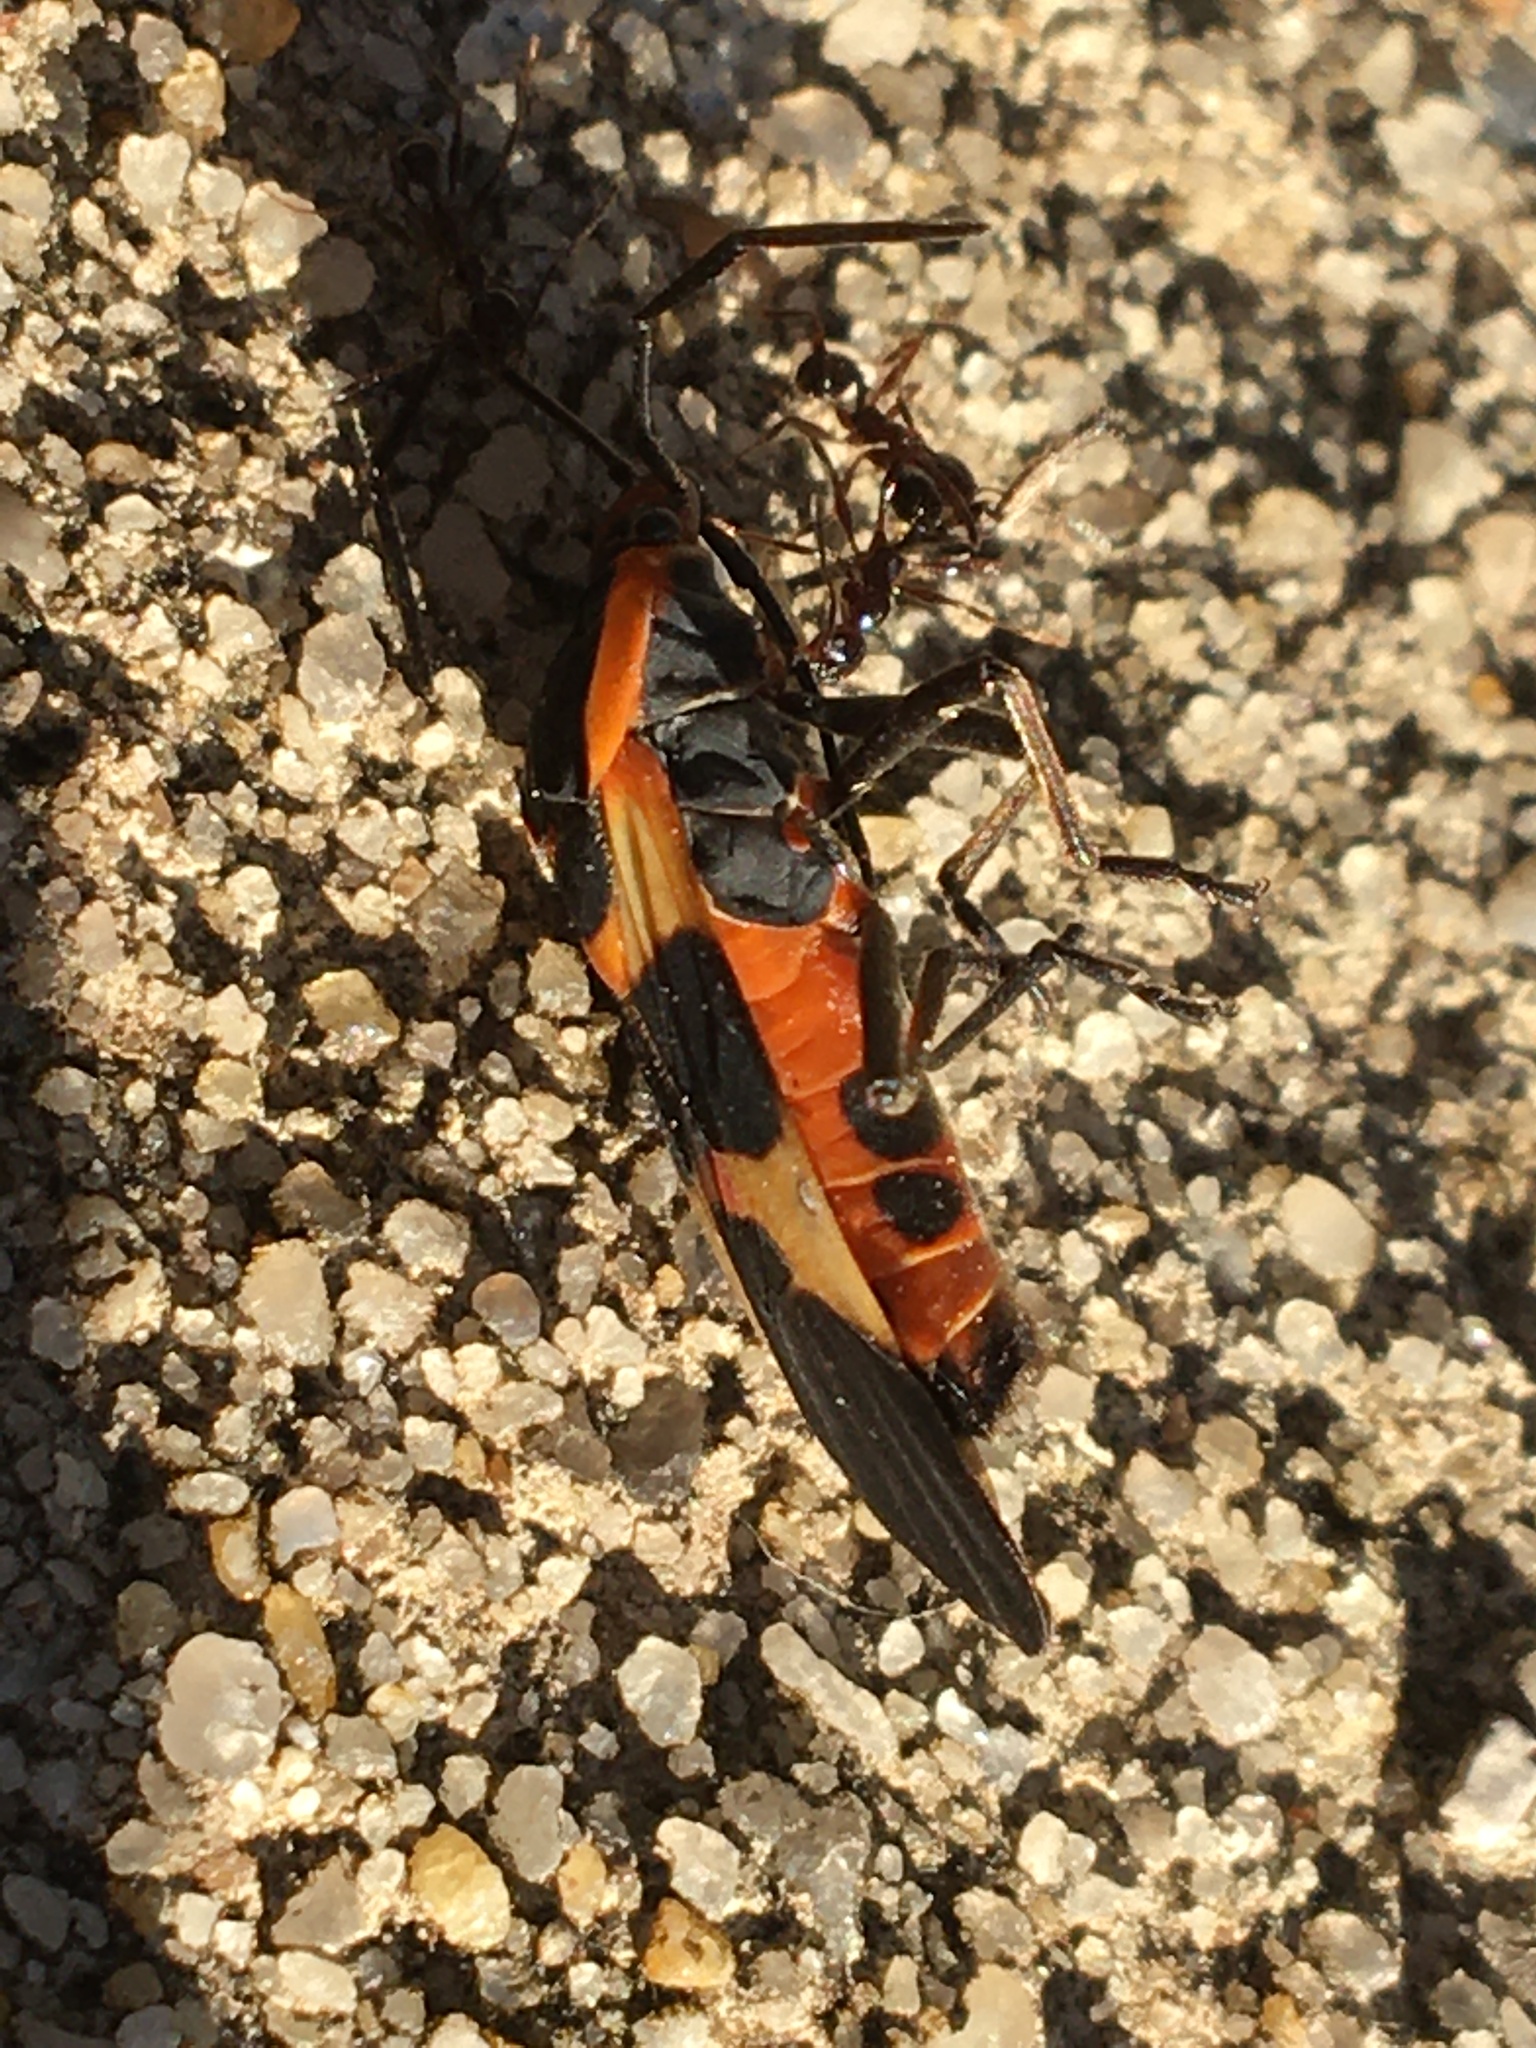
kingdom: Animalia
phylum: Arthropoda
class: Insecta
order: Hemiptera
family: Lygaeidae
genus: Oncopeltus
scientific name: Oncopeltus fasciatus
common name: Large milkweed bug
